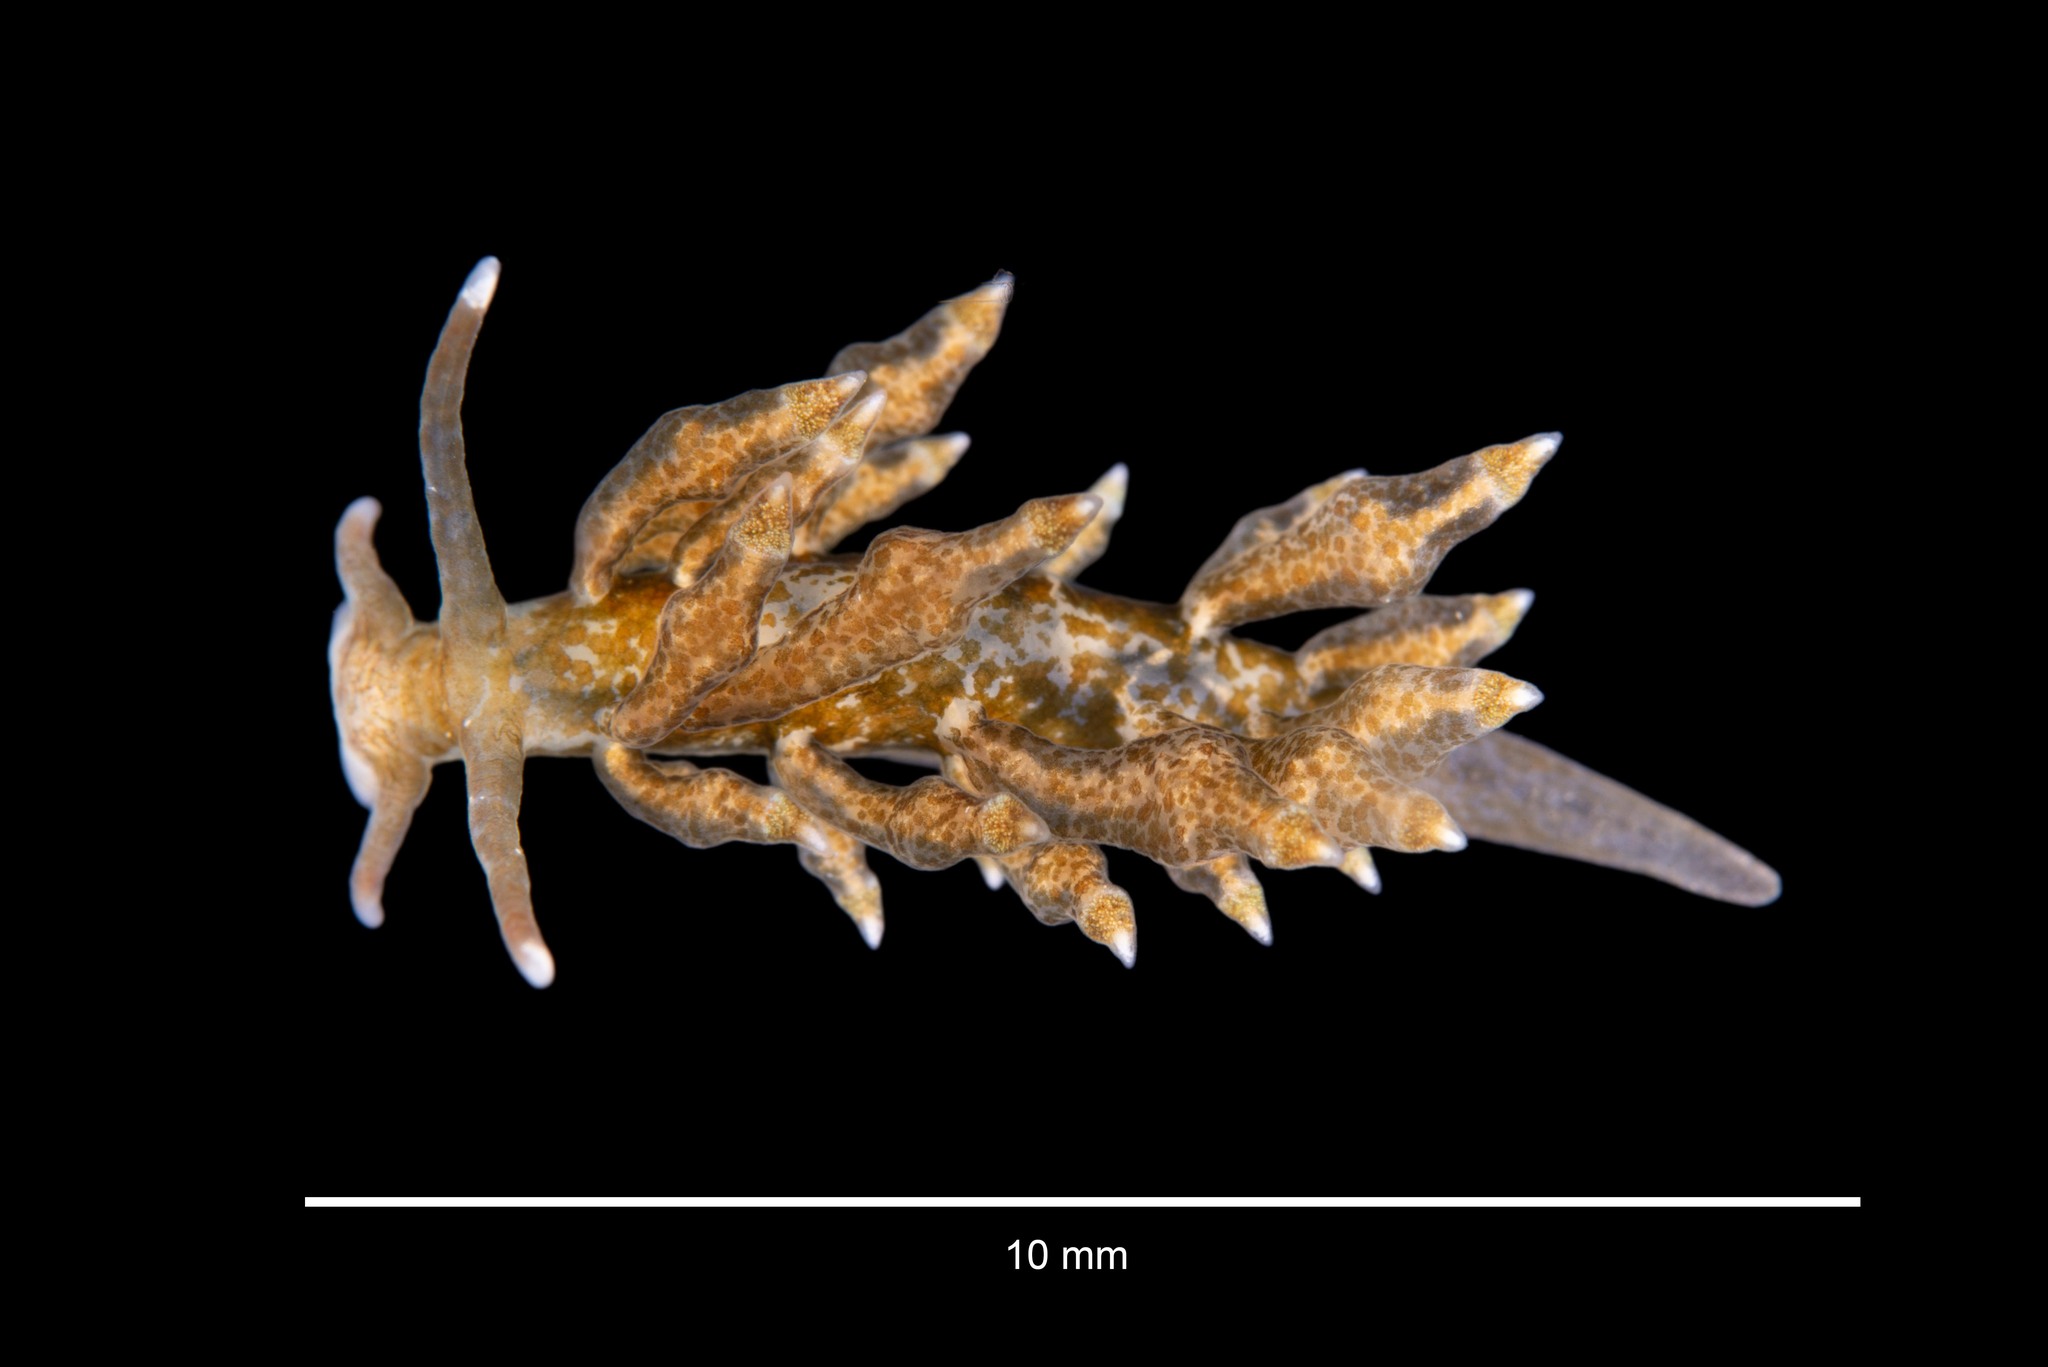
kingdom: Animalia
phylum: Mollusca
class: Gastropoda
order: Nudibranchia
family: Eubranchidae
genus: Eubranchus
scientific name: Eubranchus scintillans
